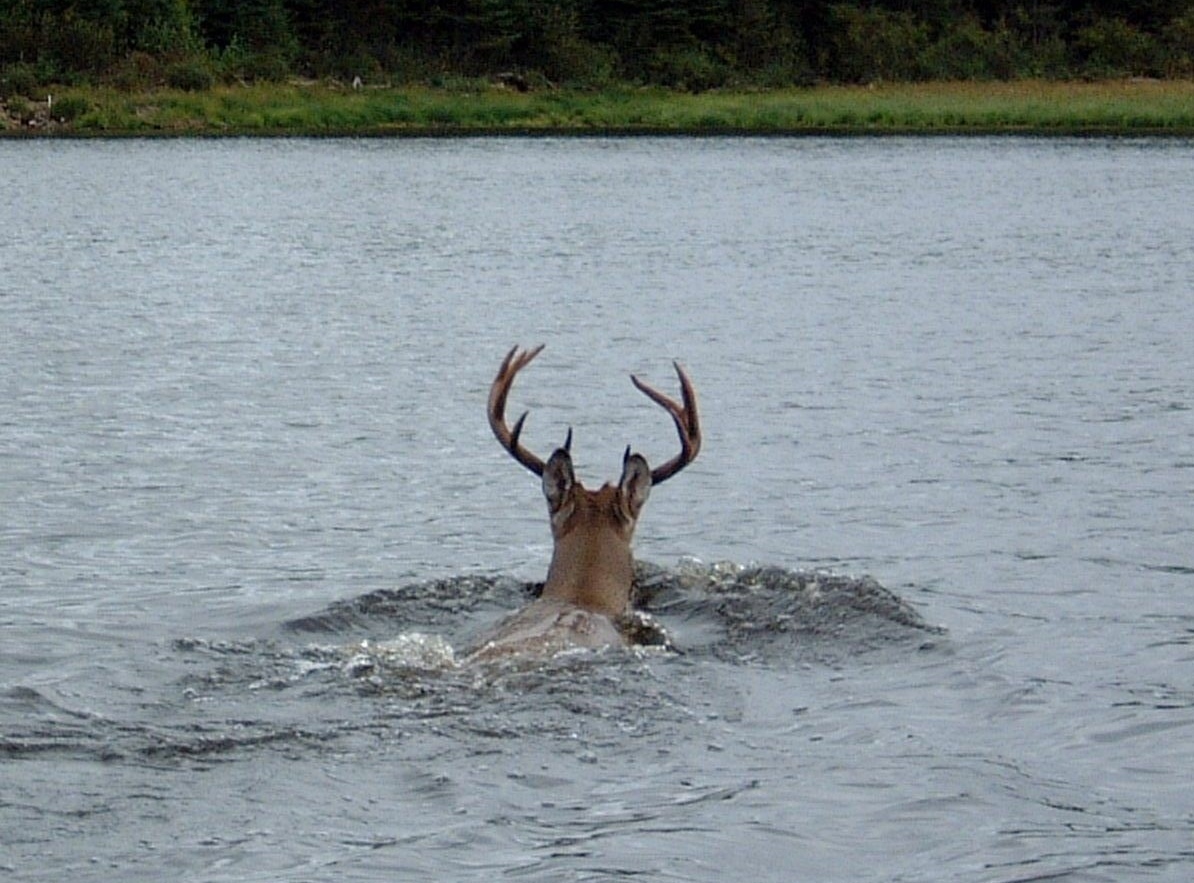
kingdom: Animalia
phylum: Chordata
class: Mammalia
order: Artiodactyla
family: Cervidae
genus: Odocoileus
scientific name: Odocoileus virginianus
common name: White-tailed deer
